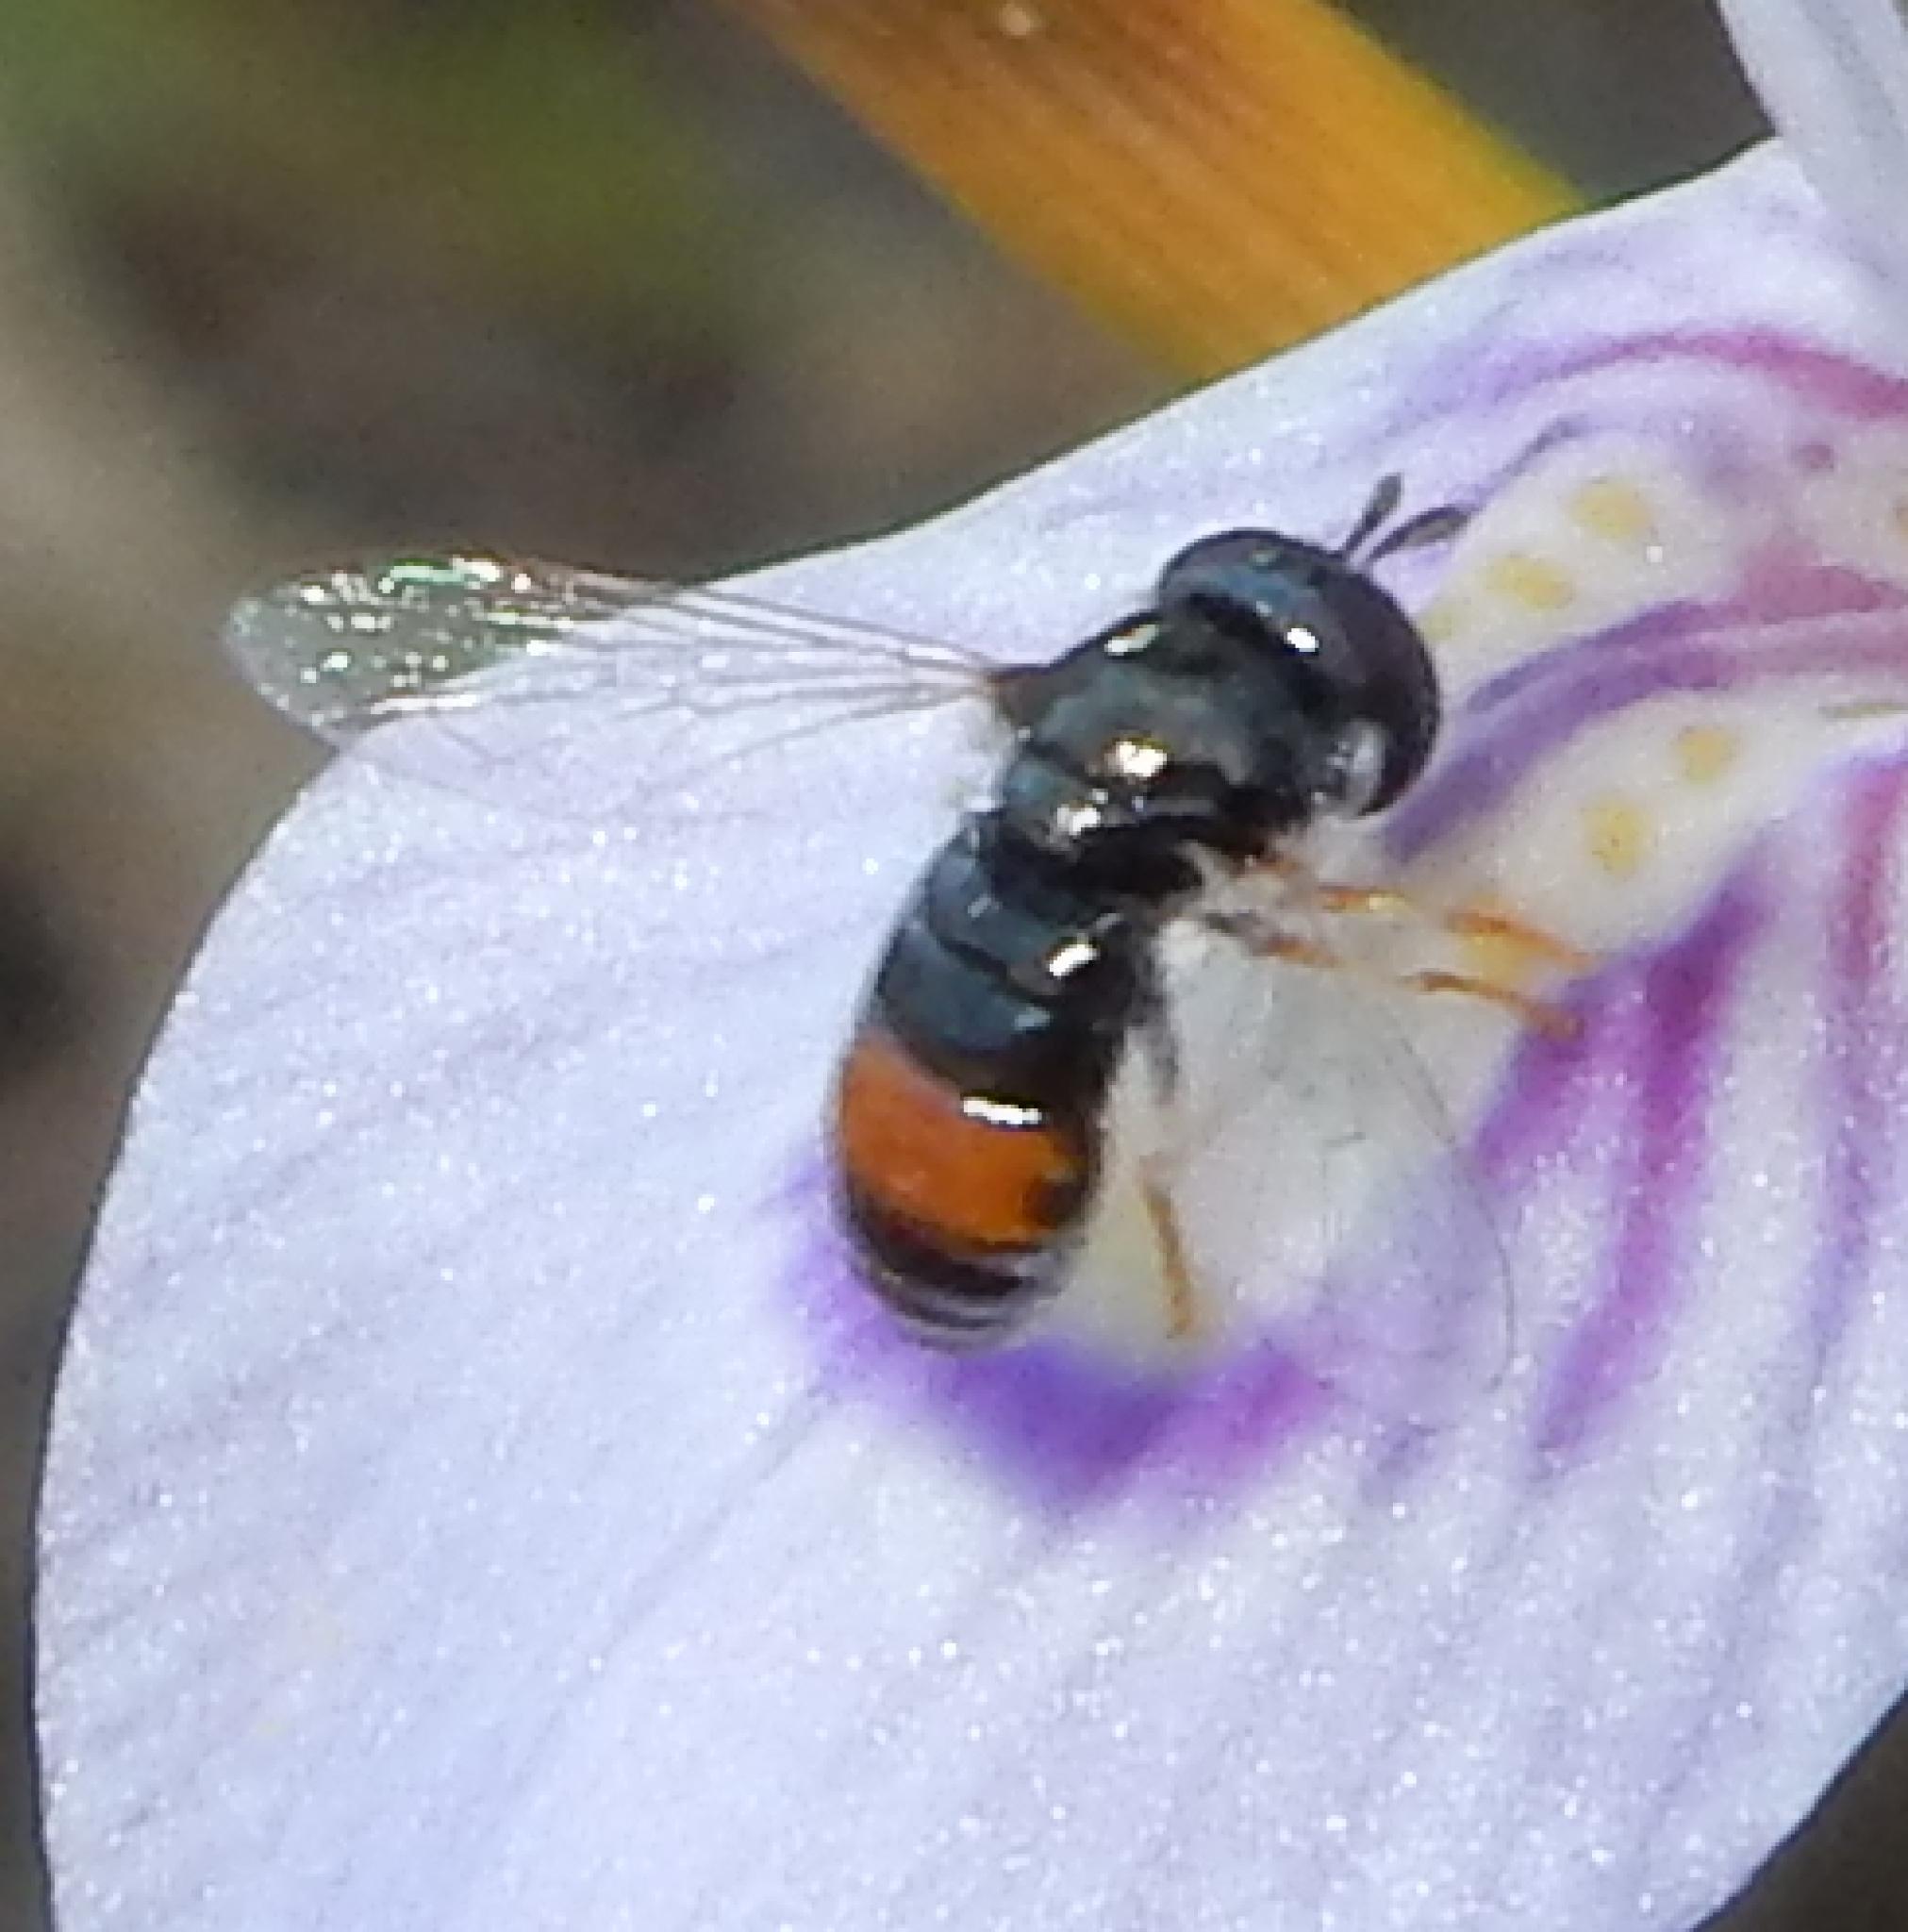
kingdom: Animalia
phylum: Arthropoda
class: Insecta
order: Diptera
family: Syrphidae
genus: Paragus
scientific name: Paragus haemorrhous
